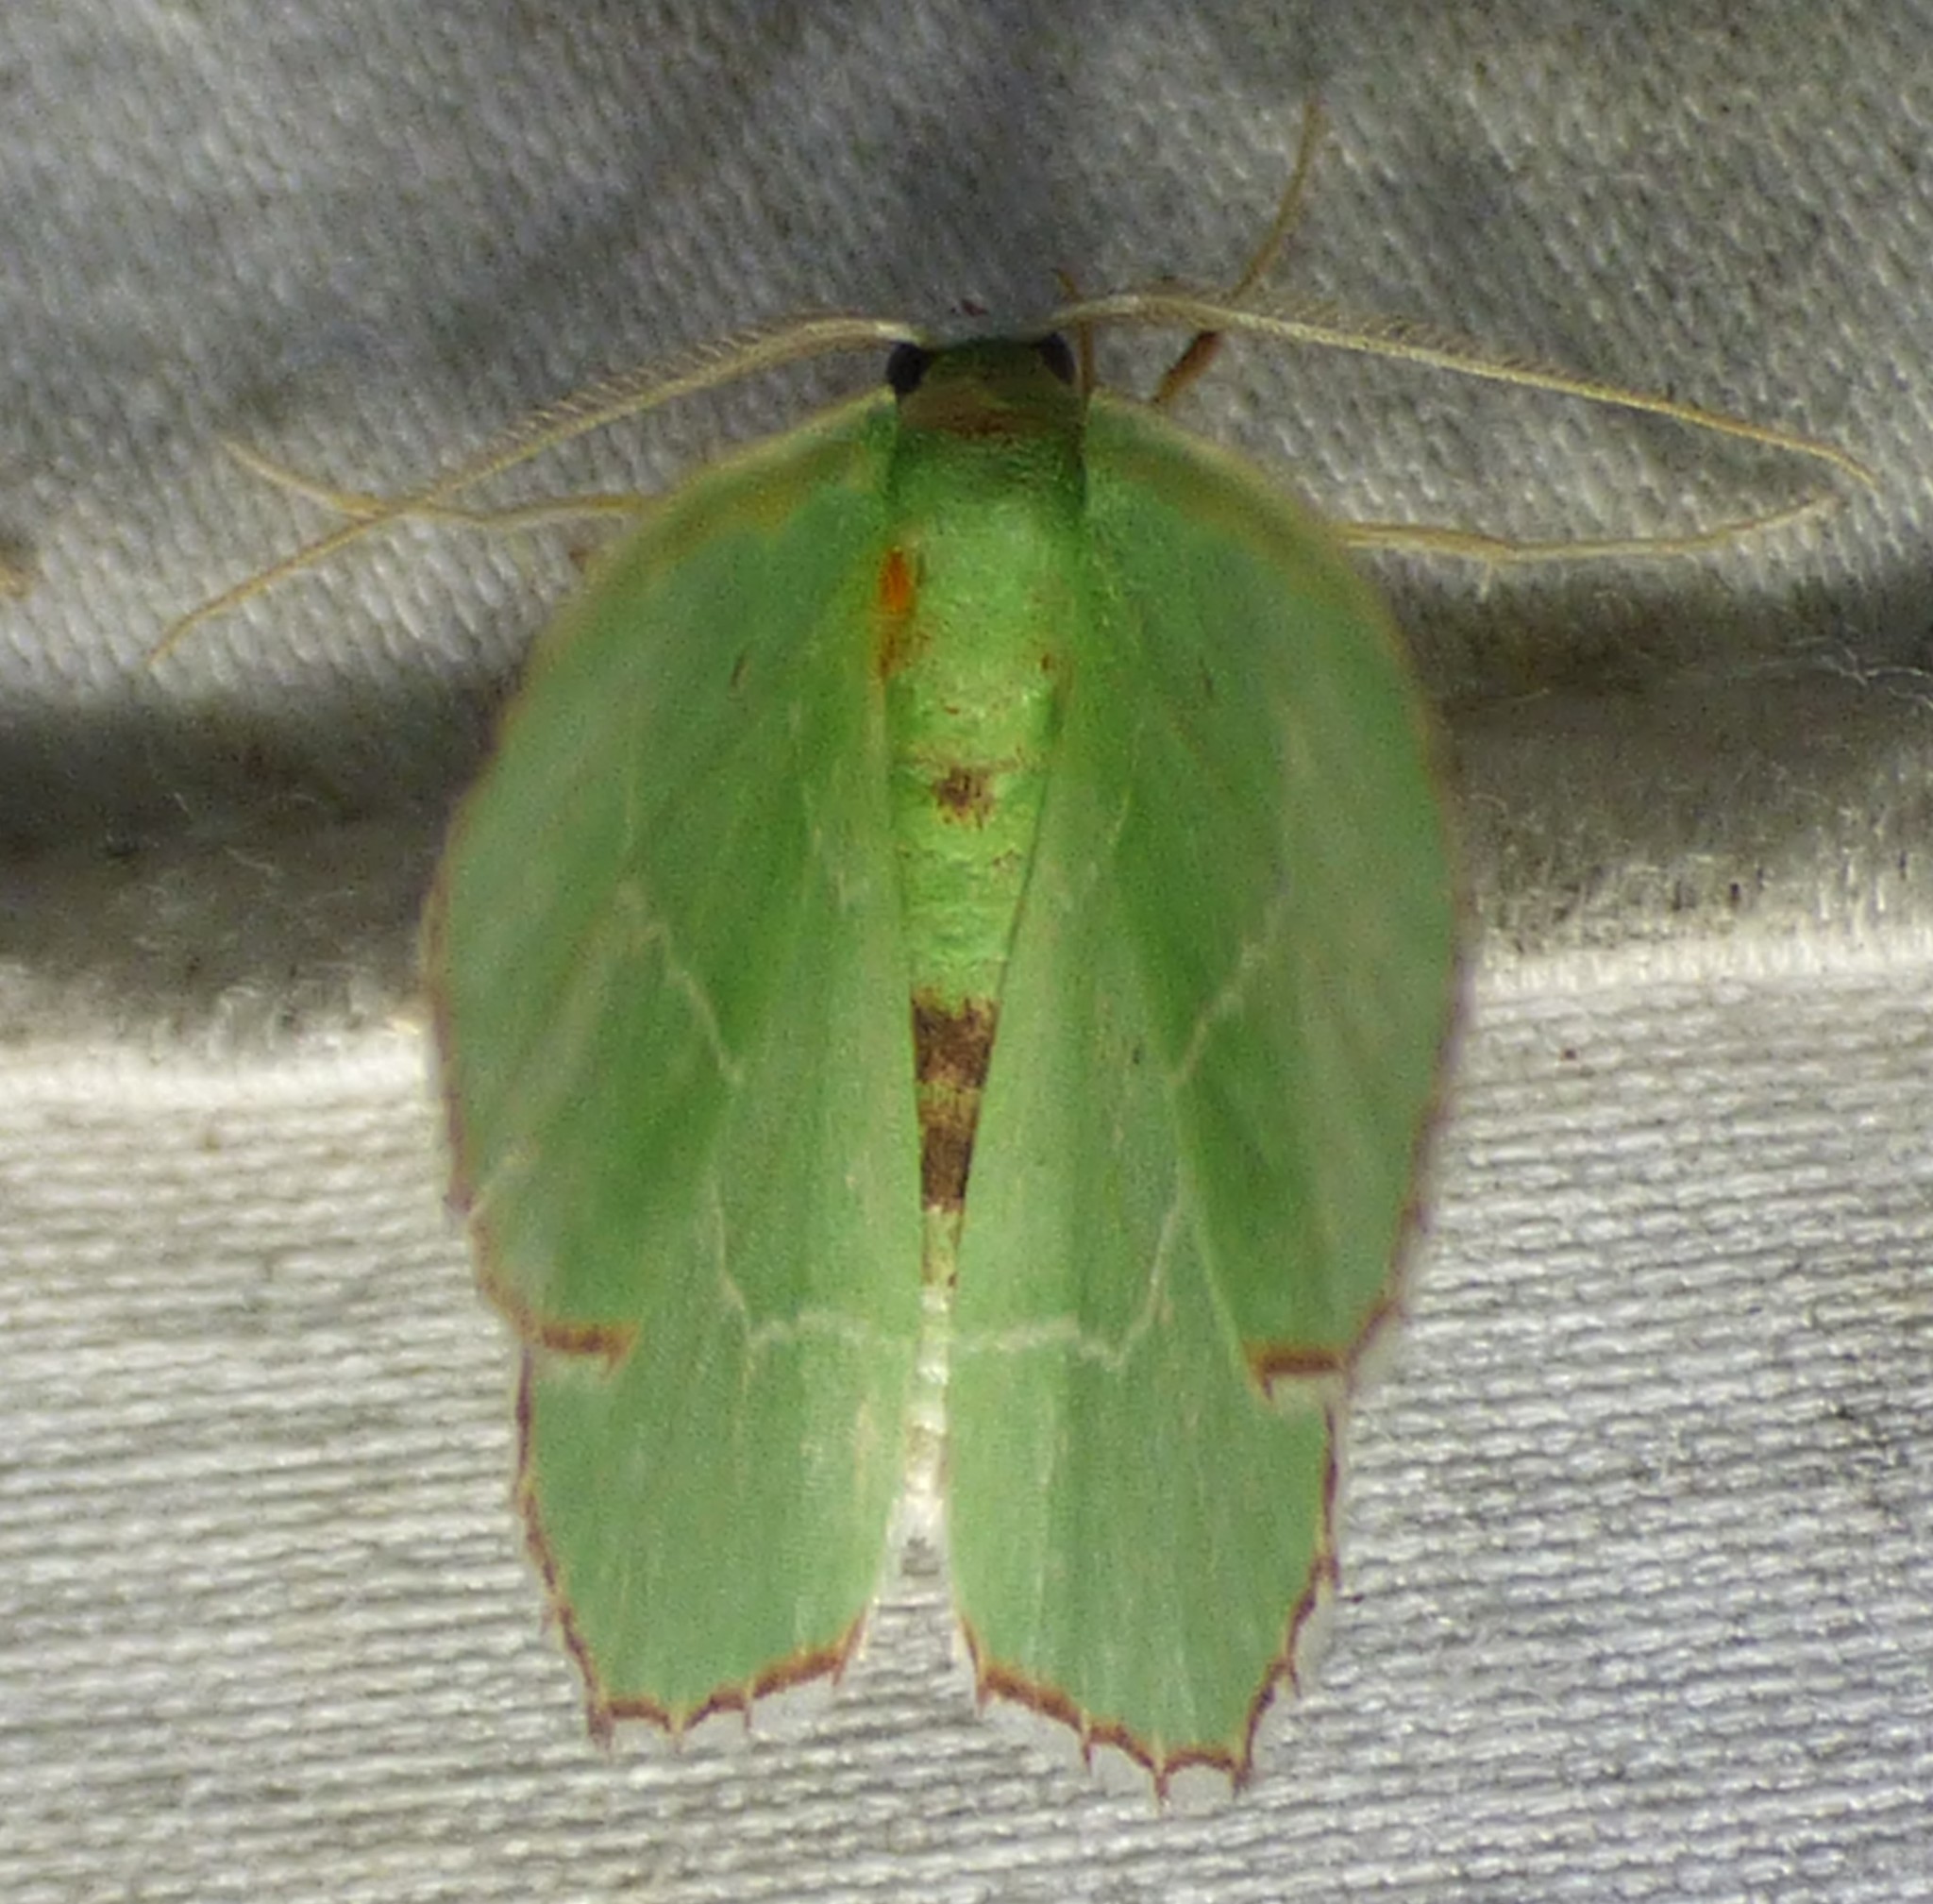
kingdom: Animalia
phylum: Arthropoda
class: Insecta
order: Lepidoptera
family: Geometridae
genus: Nemoria
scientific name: Nemoria saturiba
